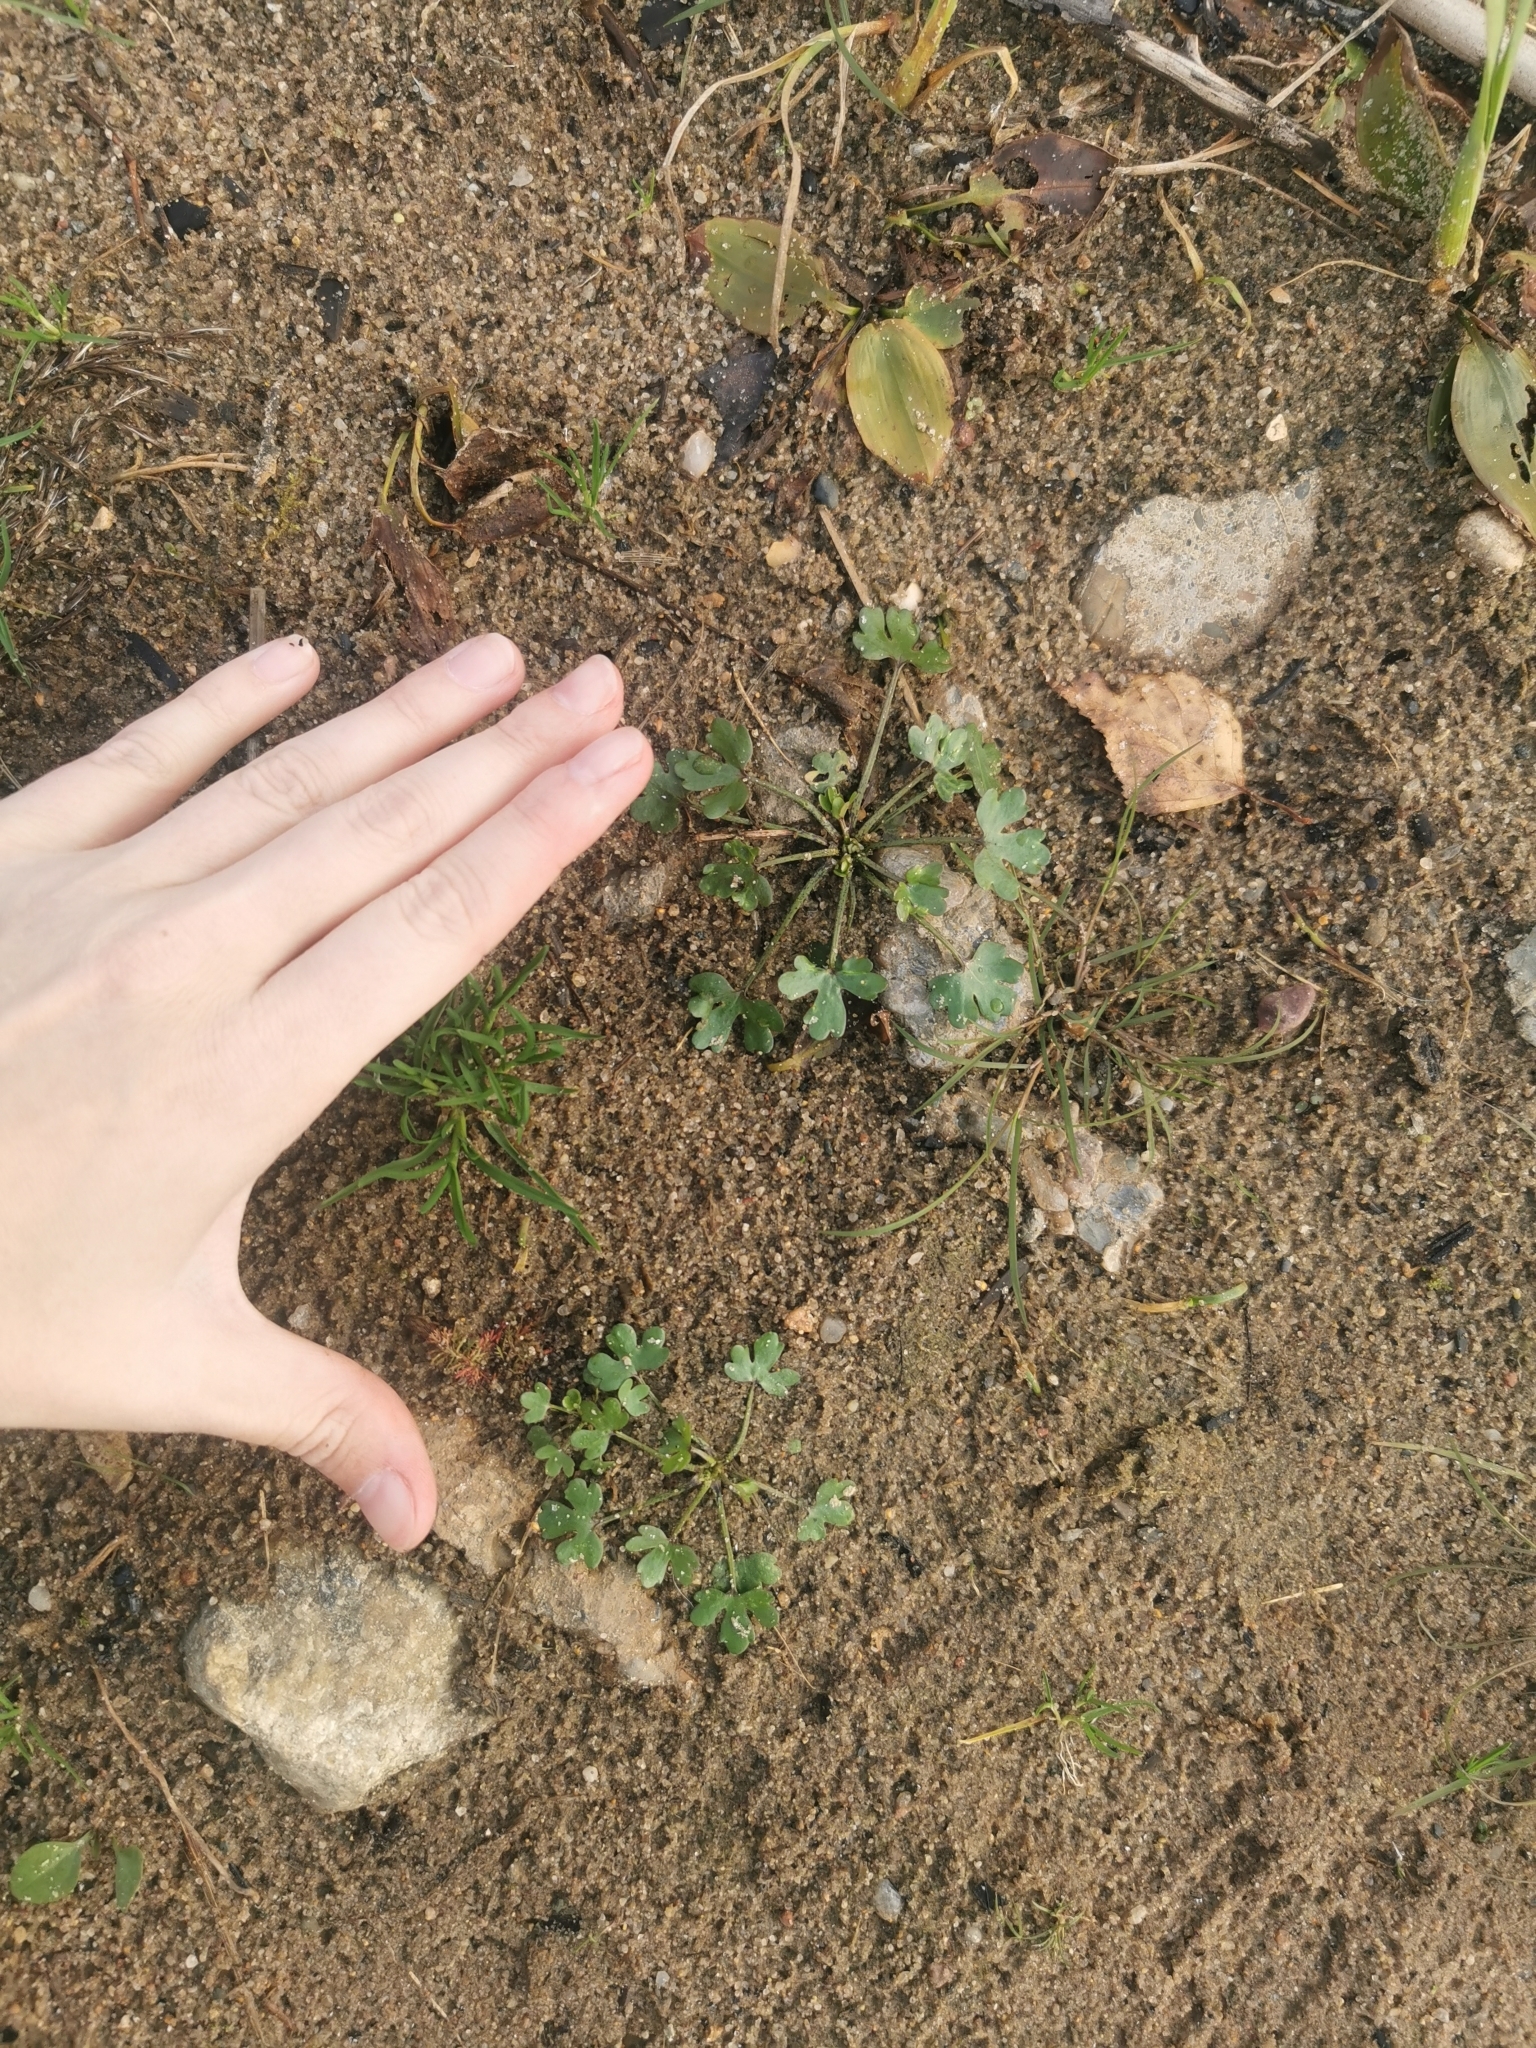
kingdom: Plantae
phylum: Tracheophyta
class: Magnoliopsida
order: Ranunculales
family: Ranunculaceae
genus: Ranunculus
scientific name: Ranunculus sceleratus
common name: Celery-leaved buttercup
